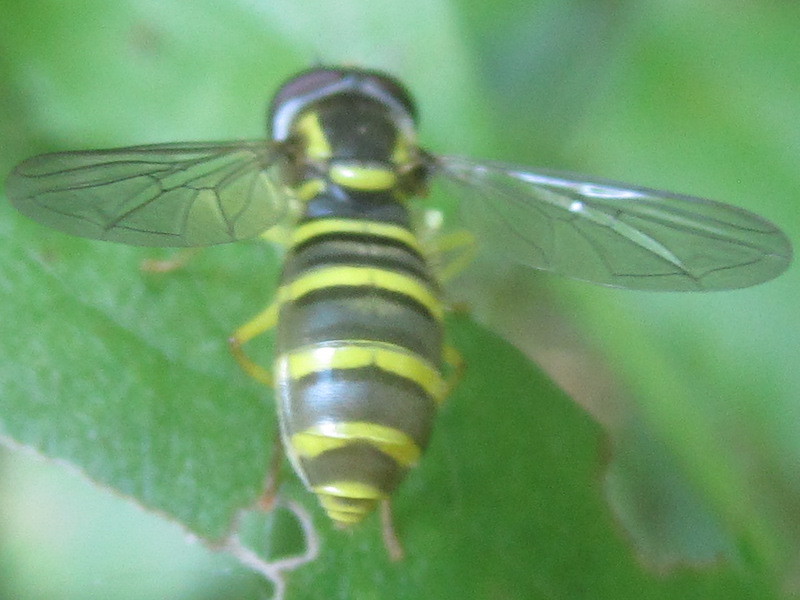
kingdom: Animalia
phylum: Arthropoda
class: Insecta
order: Diptera
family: Syrphidae
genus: Philhelius
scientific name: Philhelius flavipes
